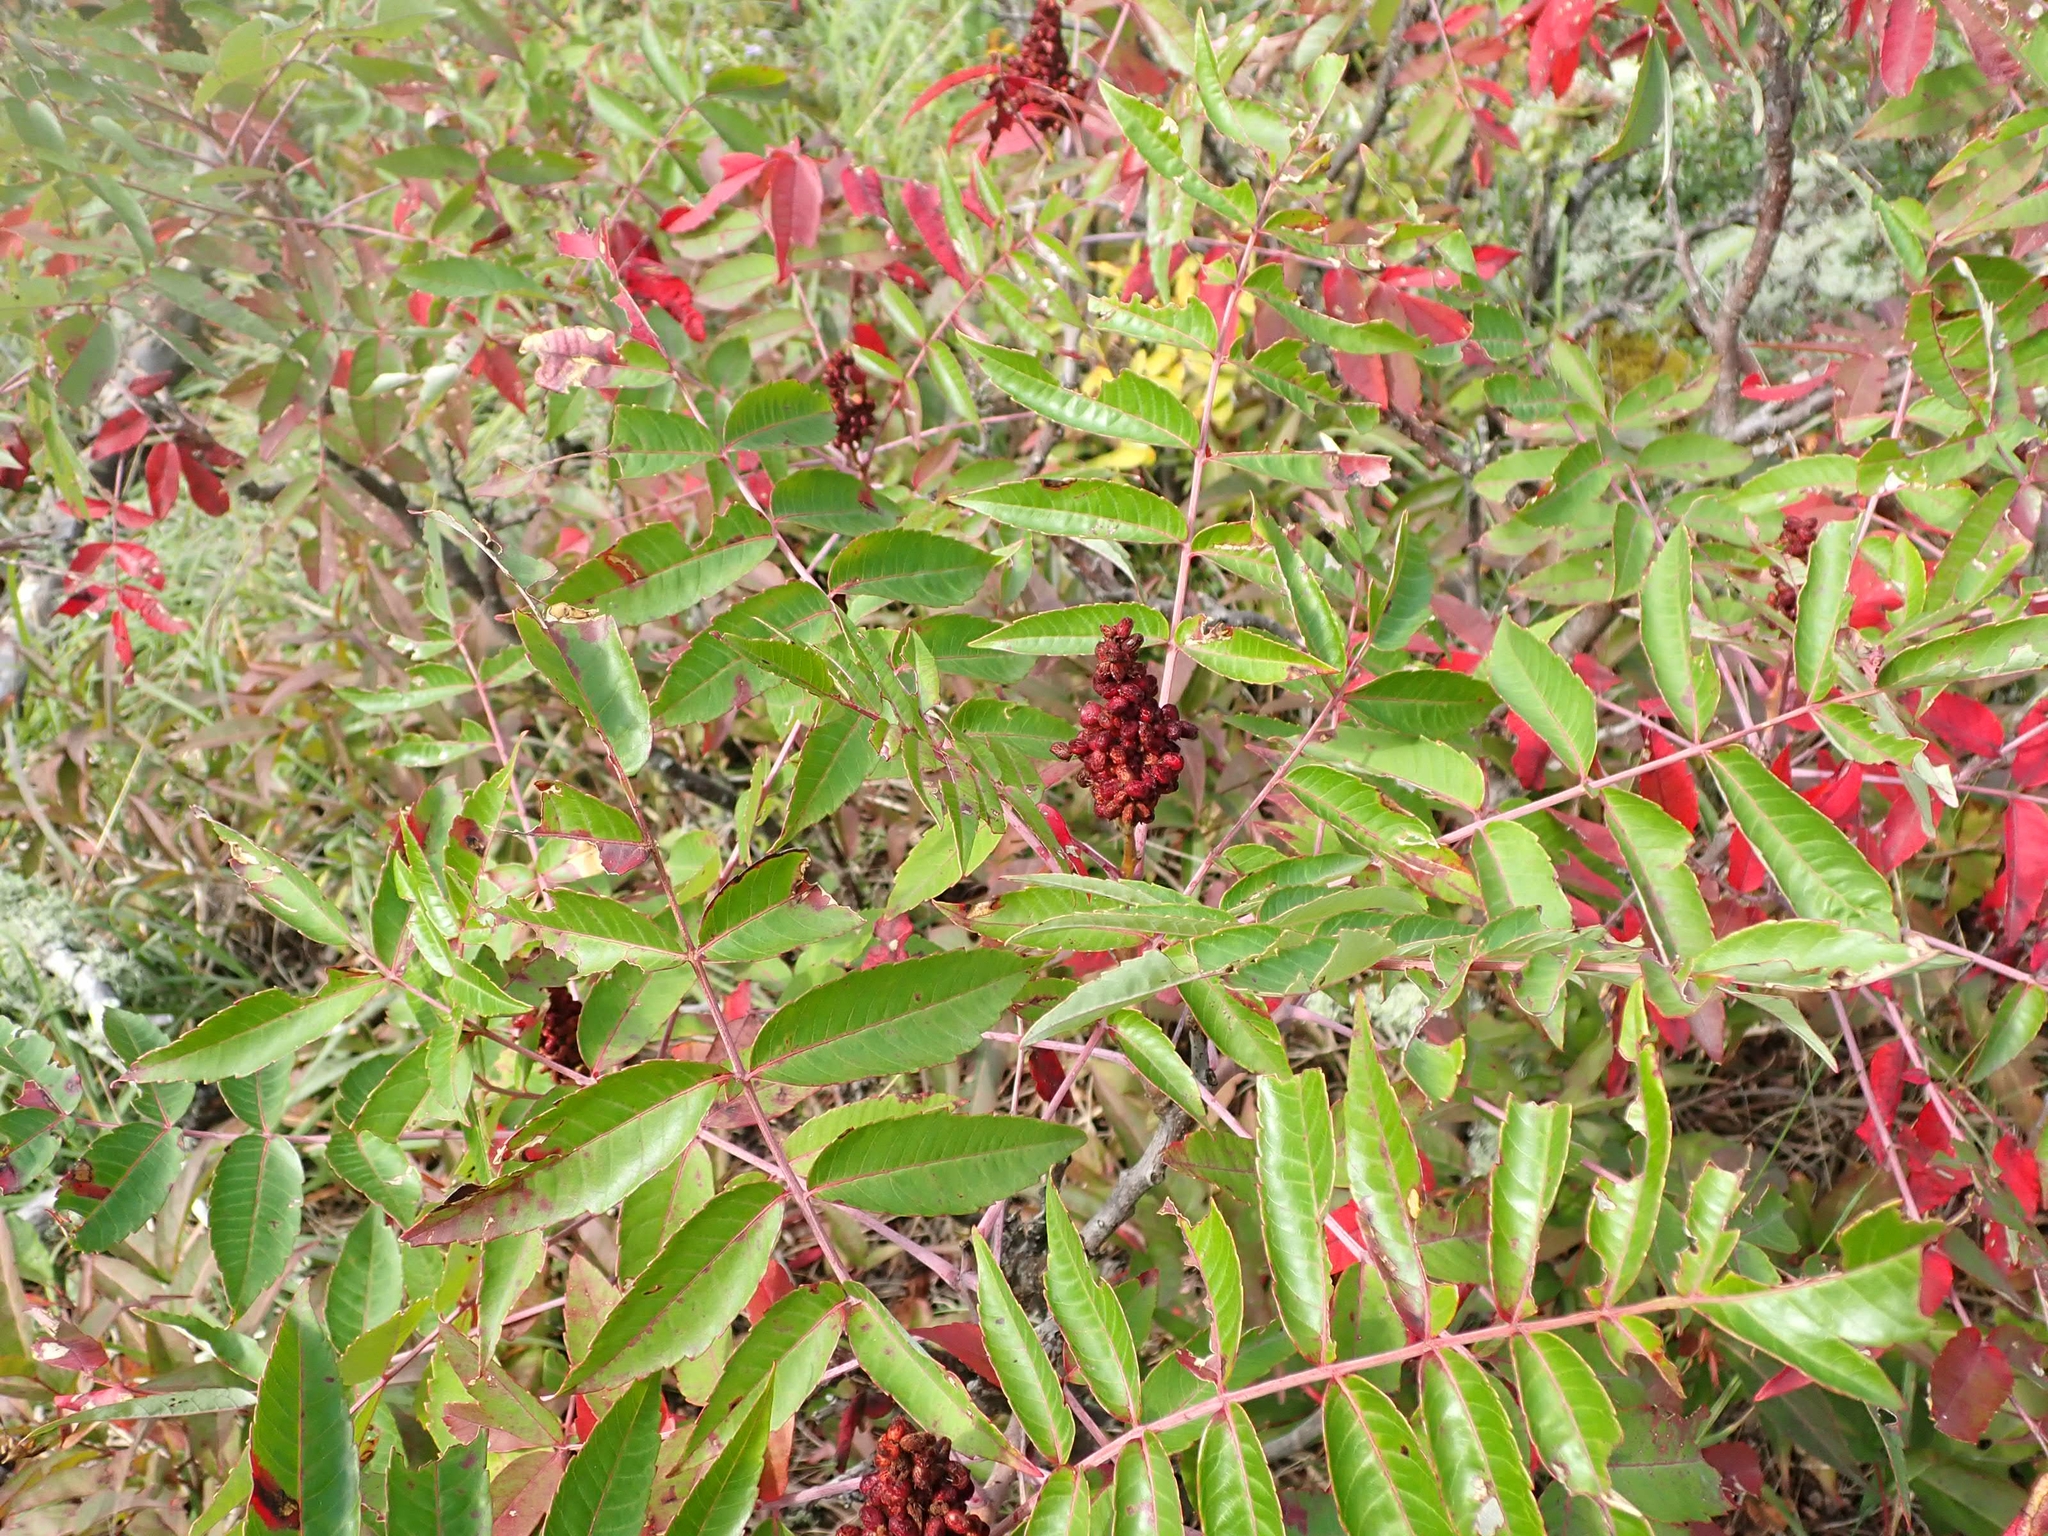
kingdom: Plantae
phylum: Tracheophyta
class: Magnoliopsida
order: Sapindales
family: Anacardiaceae
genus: Rhus
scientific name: Rhus glabra
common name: Scarlet sumac
